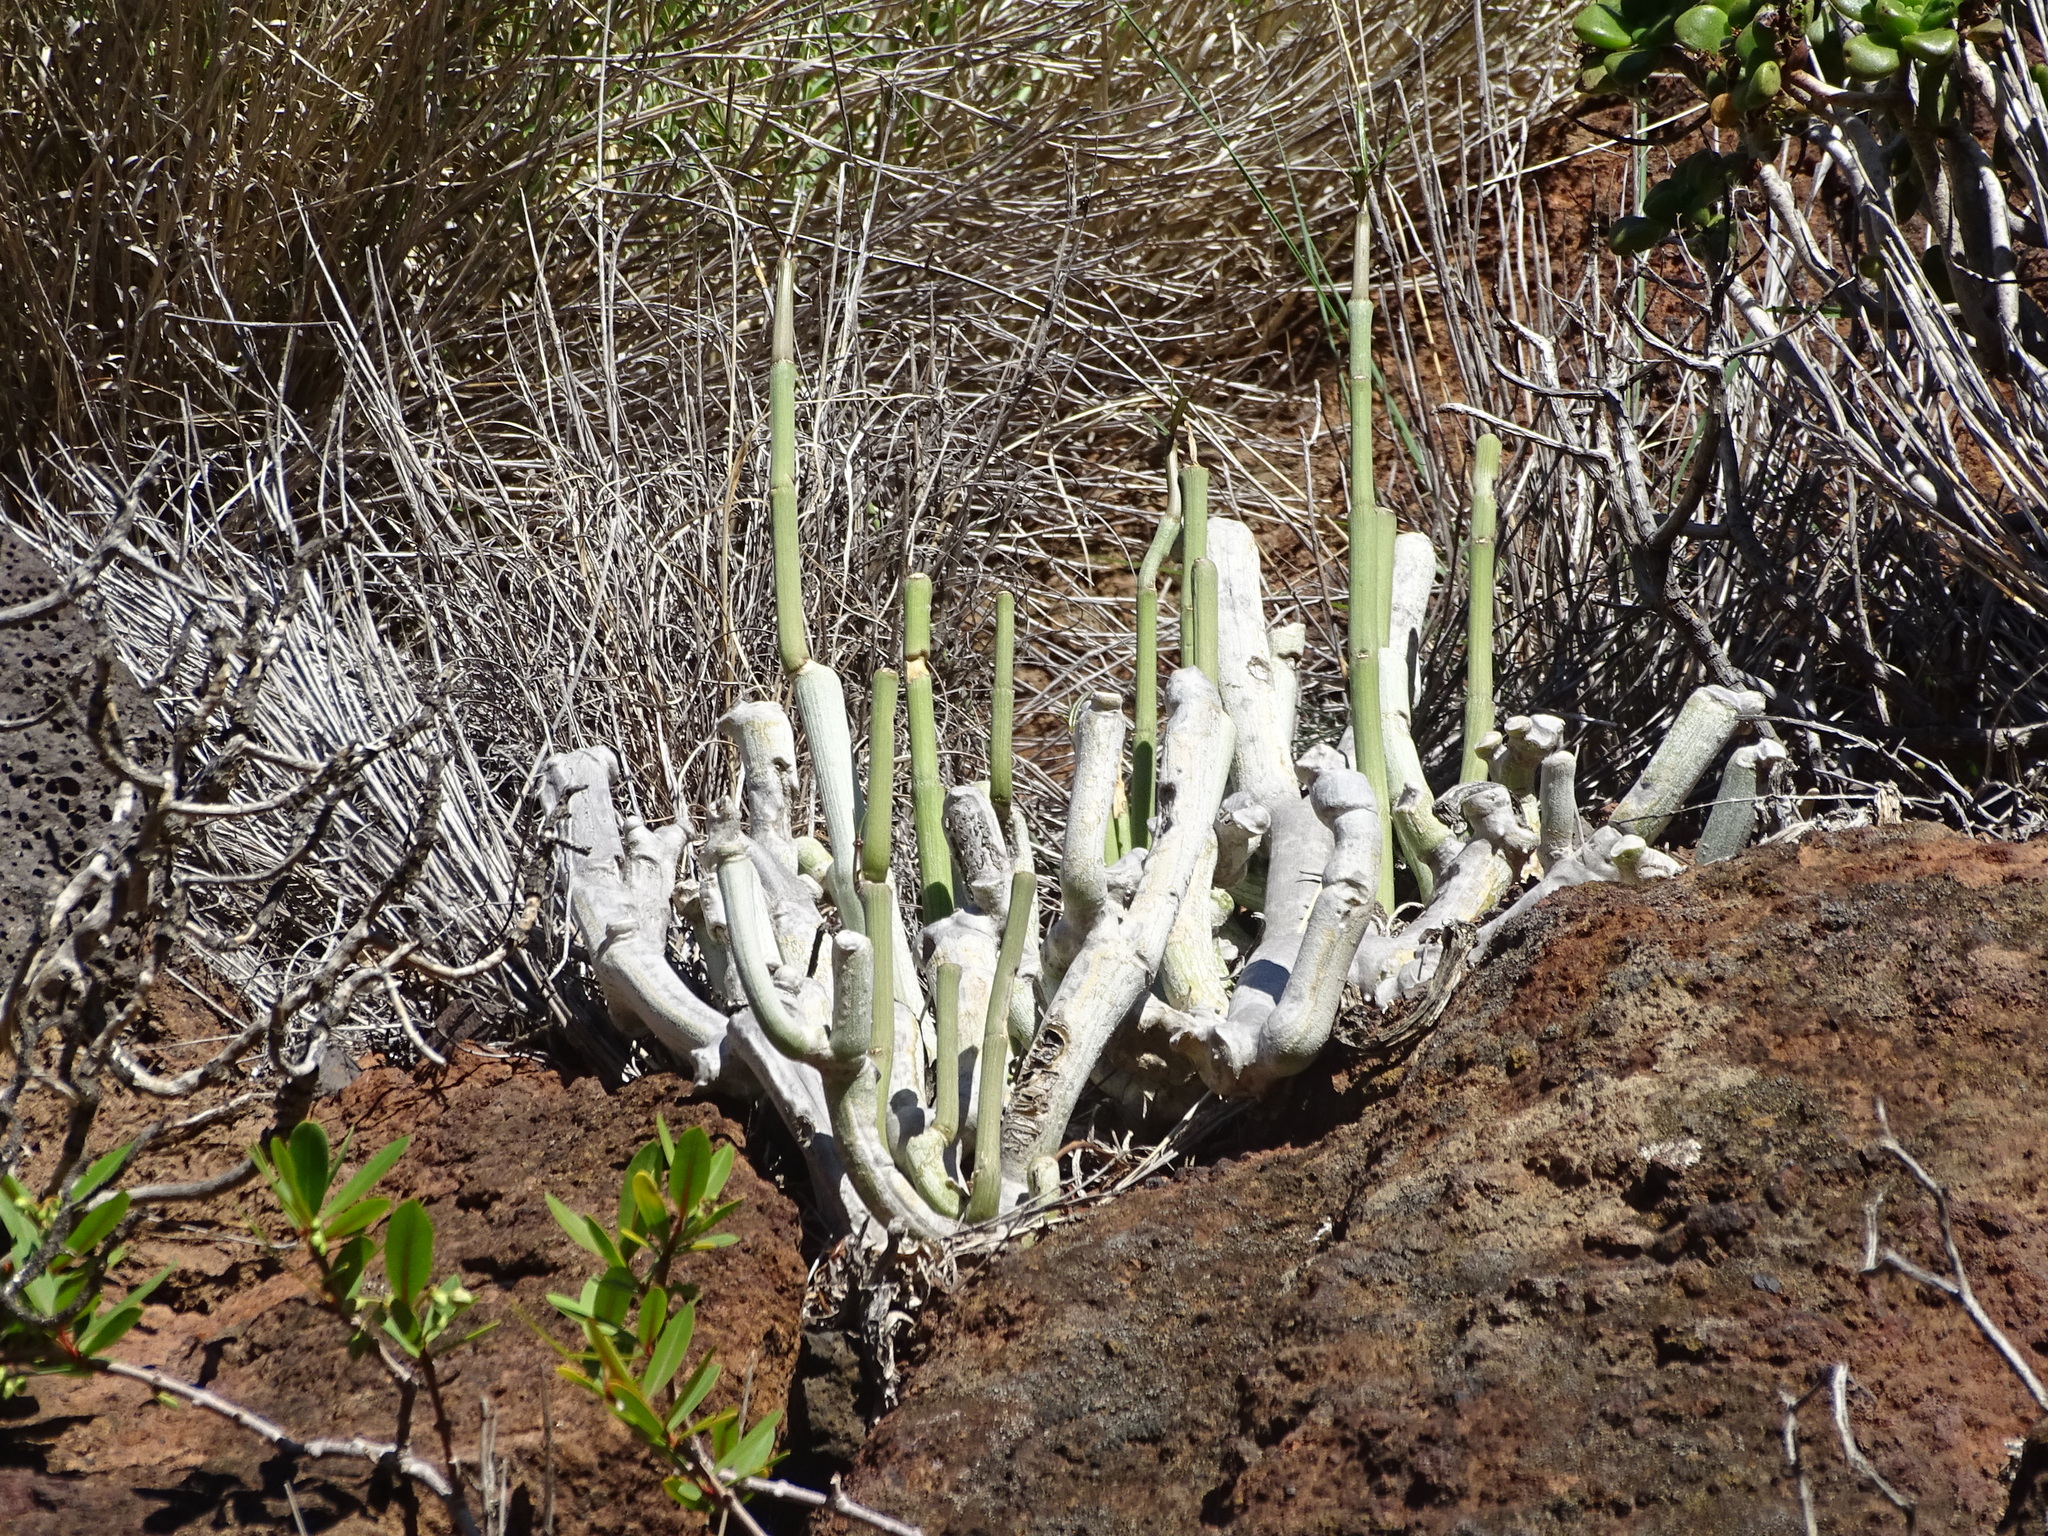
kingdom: Plantae
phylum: Tracheophyta
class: Magnoliopsida
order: Gentianales
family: Apocynaceae
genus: Ceropegia
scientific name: Ceropegia dichotoma
